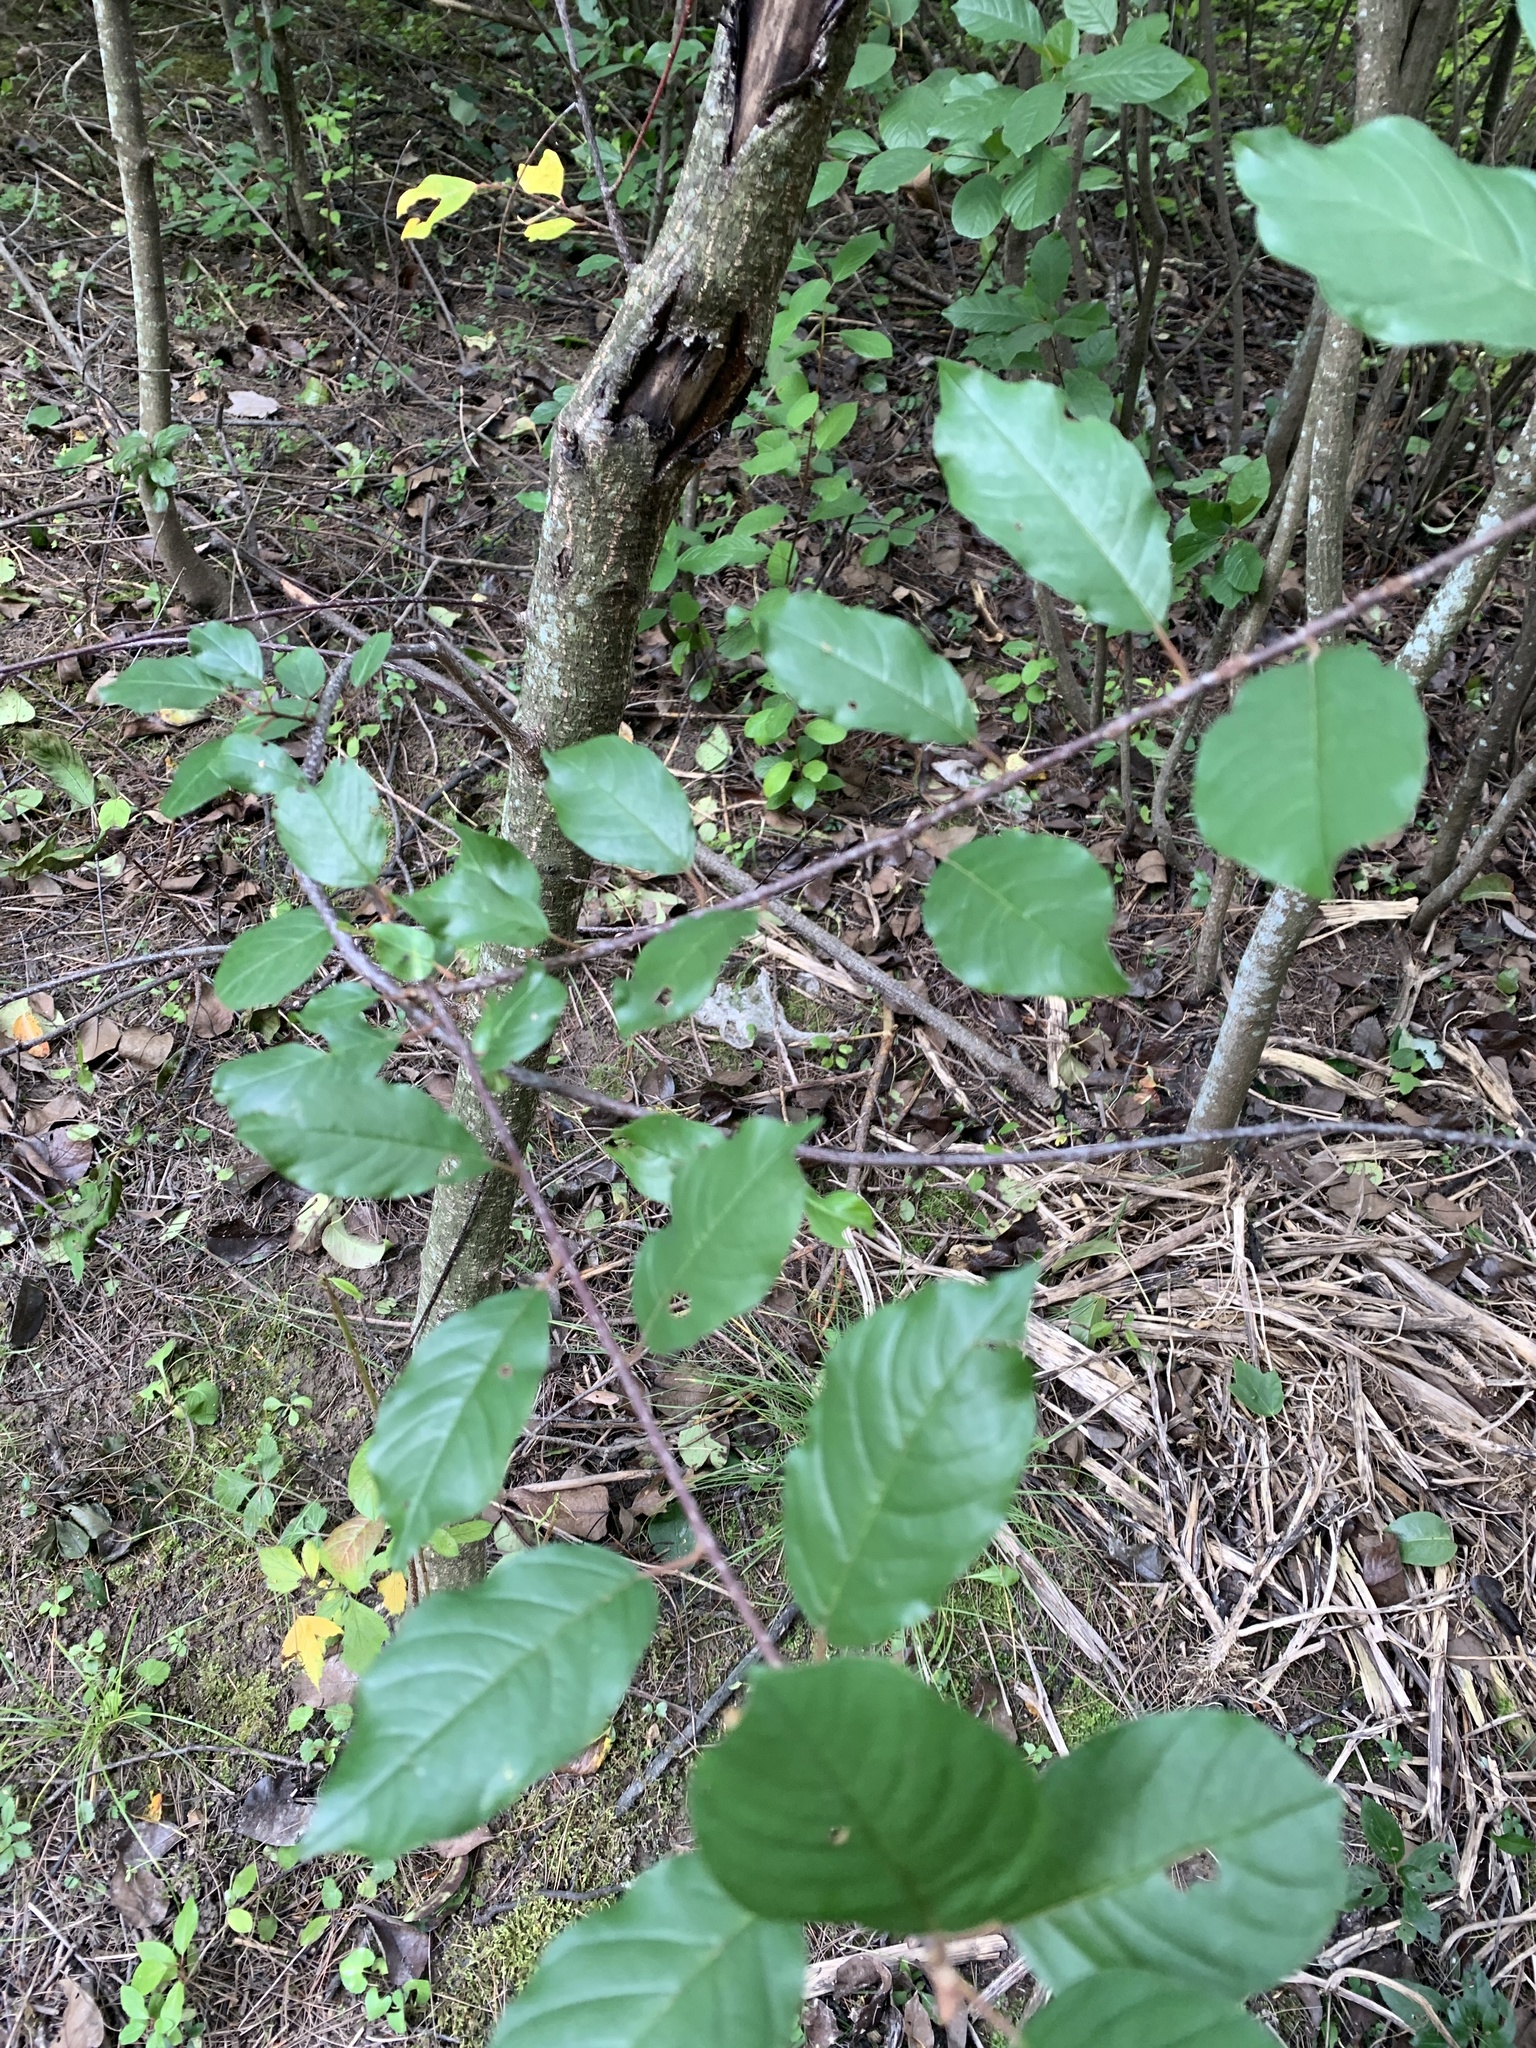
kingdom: Plantae
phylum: Tracheophyta
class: Magnoliopsida
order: Rosales
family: Rhamnaceae
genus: Frangula
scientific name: Frangula alnus
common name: Alder buckthorn
